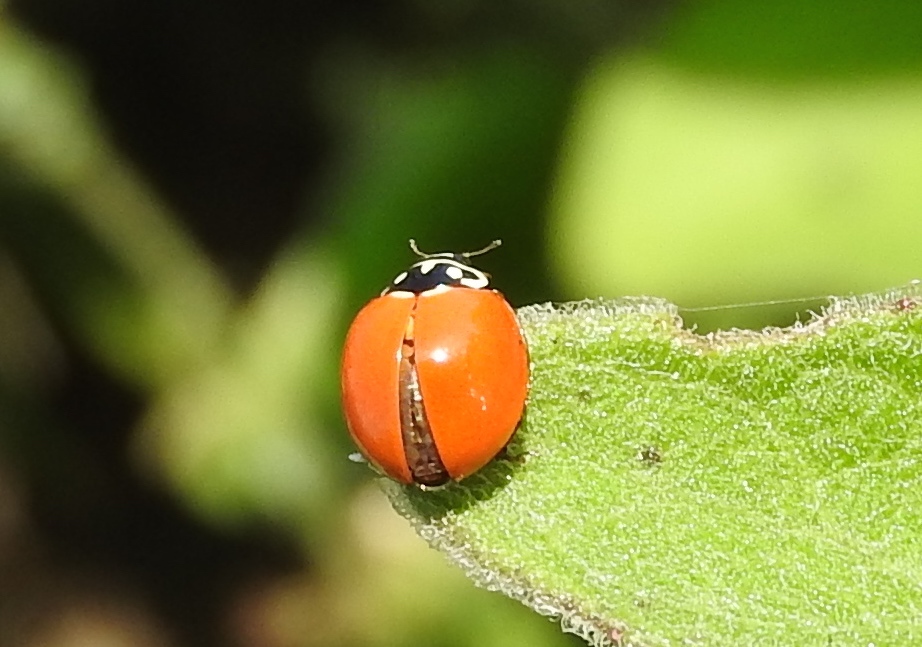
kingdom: Animalia
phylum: Arthropoda
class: Insecta
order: Coleoptera
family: Coccinellidae
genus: Cycloneda
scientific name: Cycloneda sanguinea
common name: Ladybird beetle
